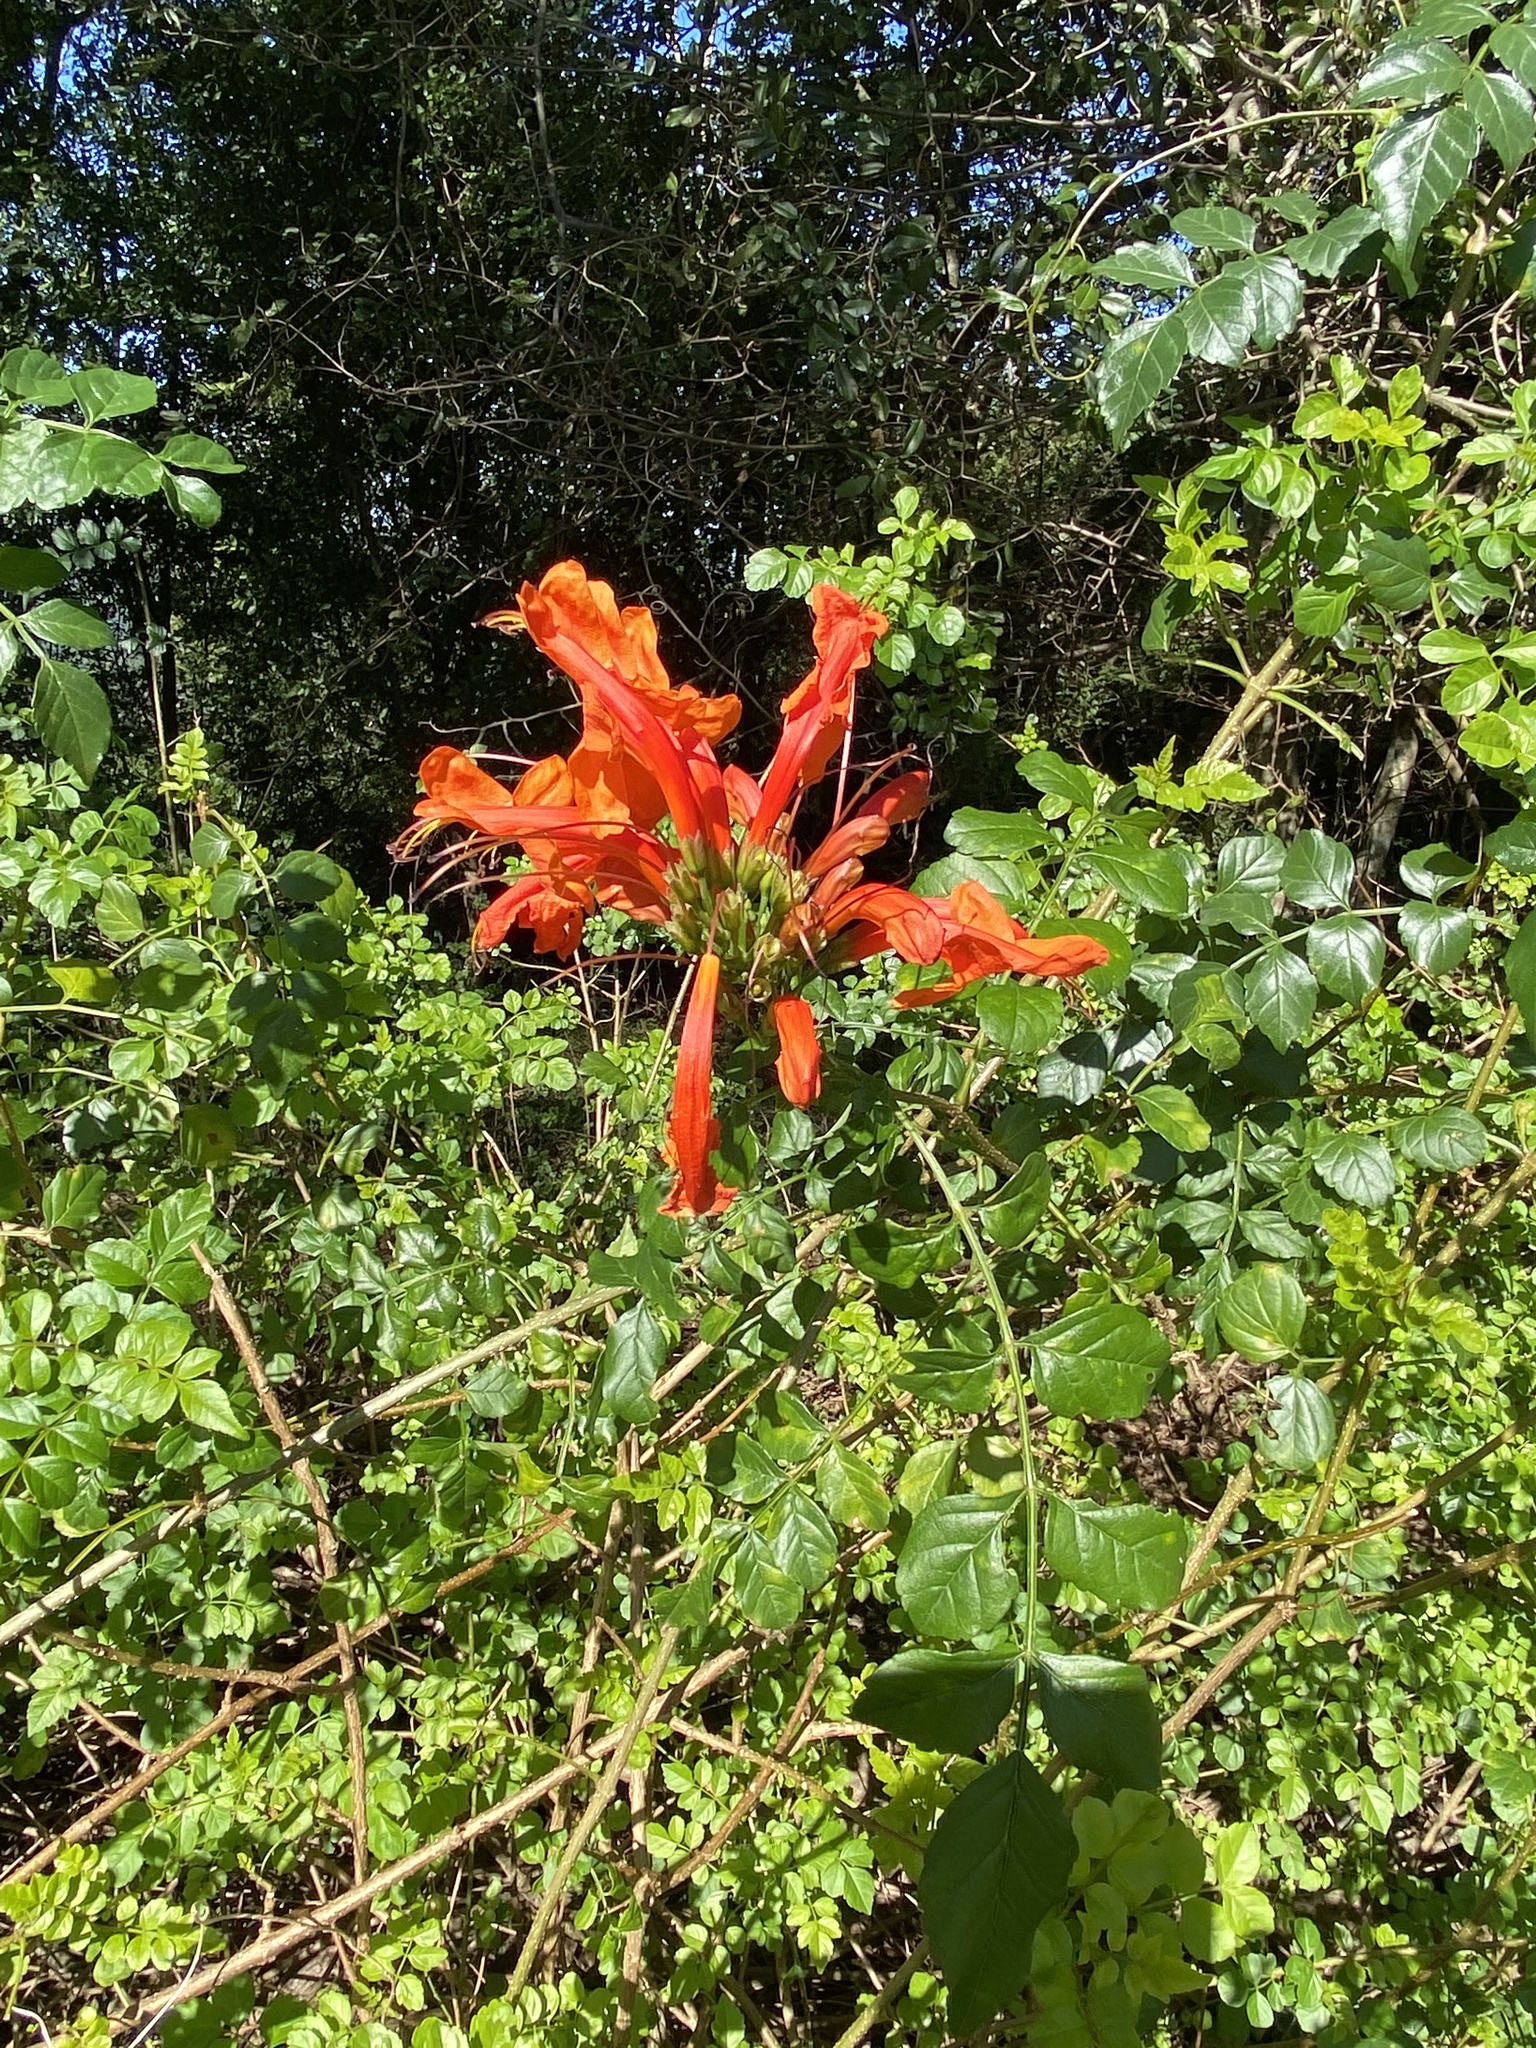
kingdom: Plantae
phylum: Tracheophyta
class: Magnoliopsida
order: Lamiales
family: Bignoniaceae
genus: Tecomaria
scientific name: Tecomaria capensis
